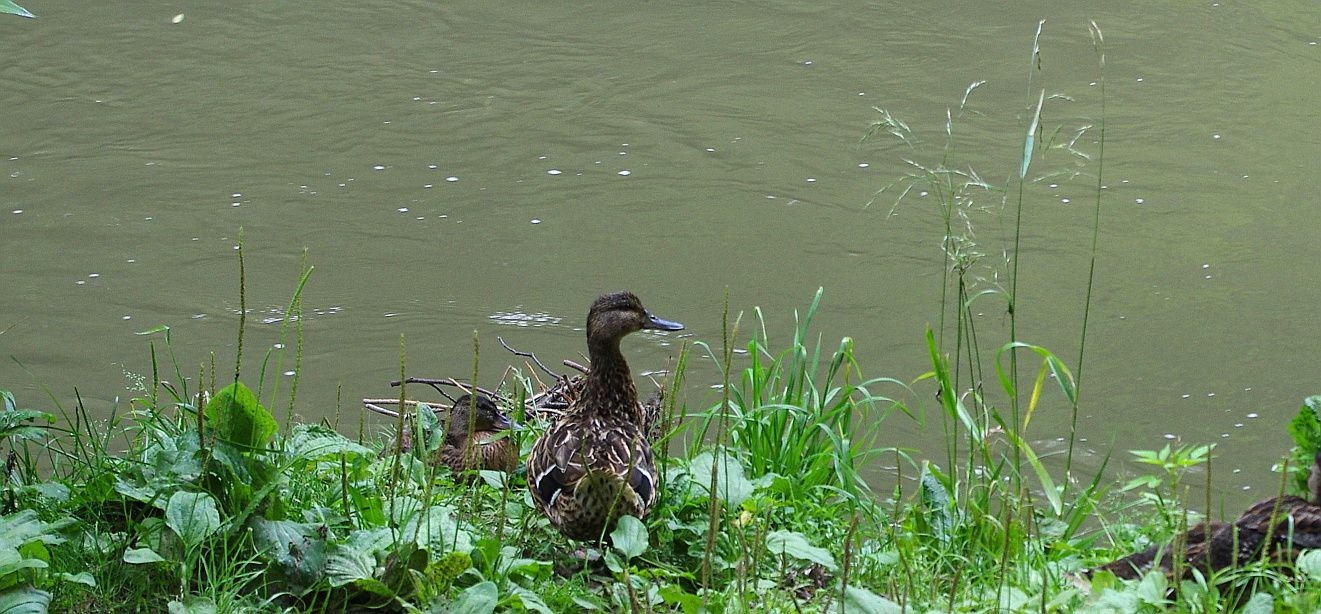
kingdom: Animalia
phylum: Chordata
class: Aves
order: Anseriformes
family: Anatidae
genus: Anas
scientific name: Anas platyrhynchos
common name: Mallard
